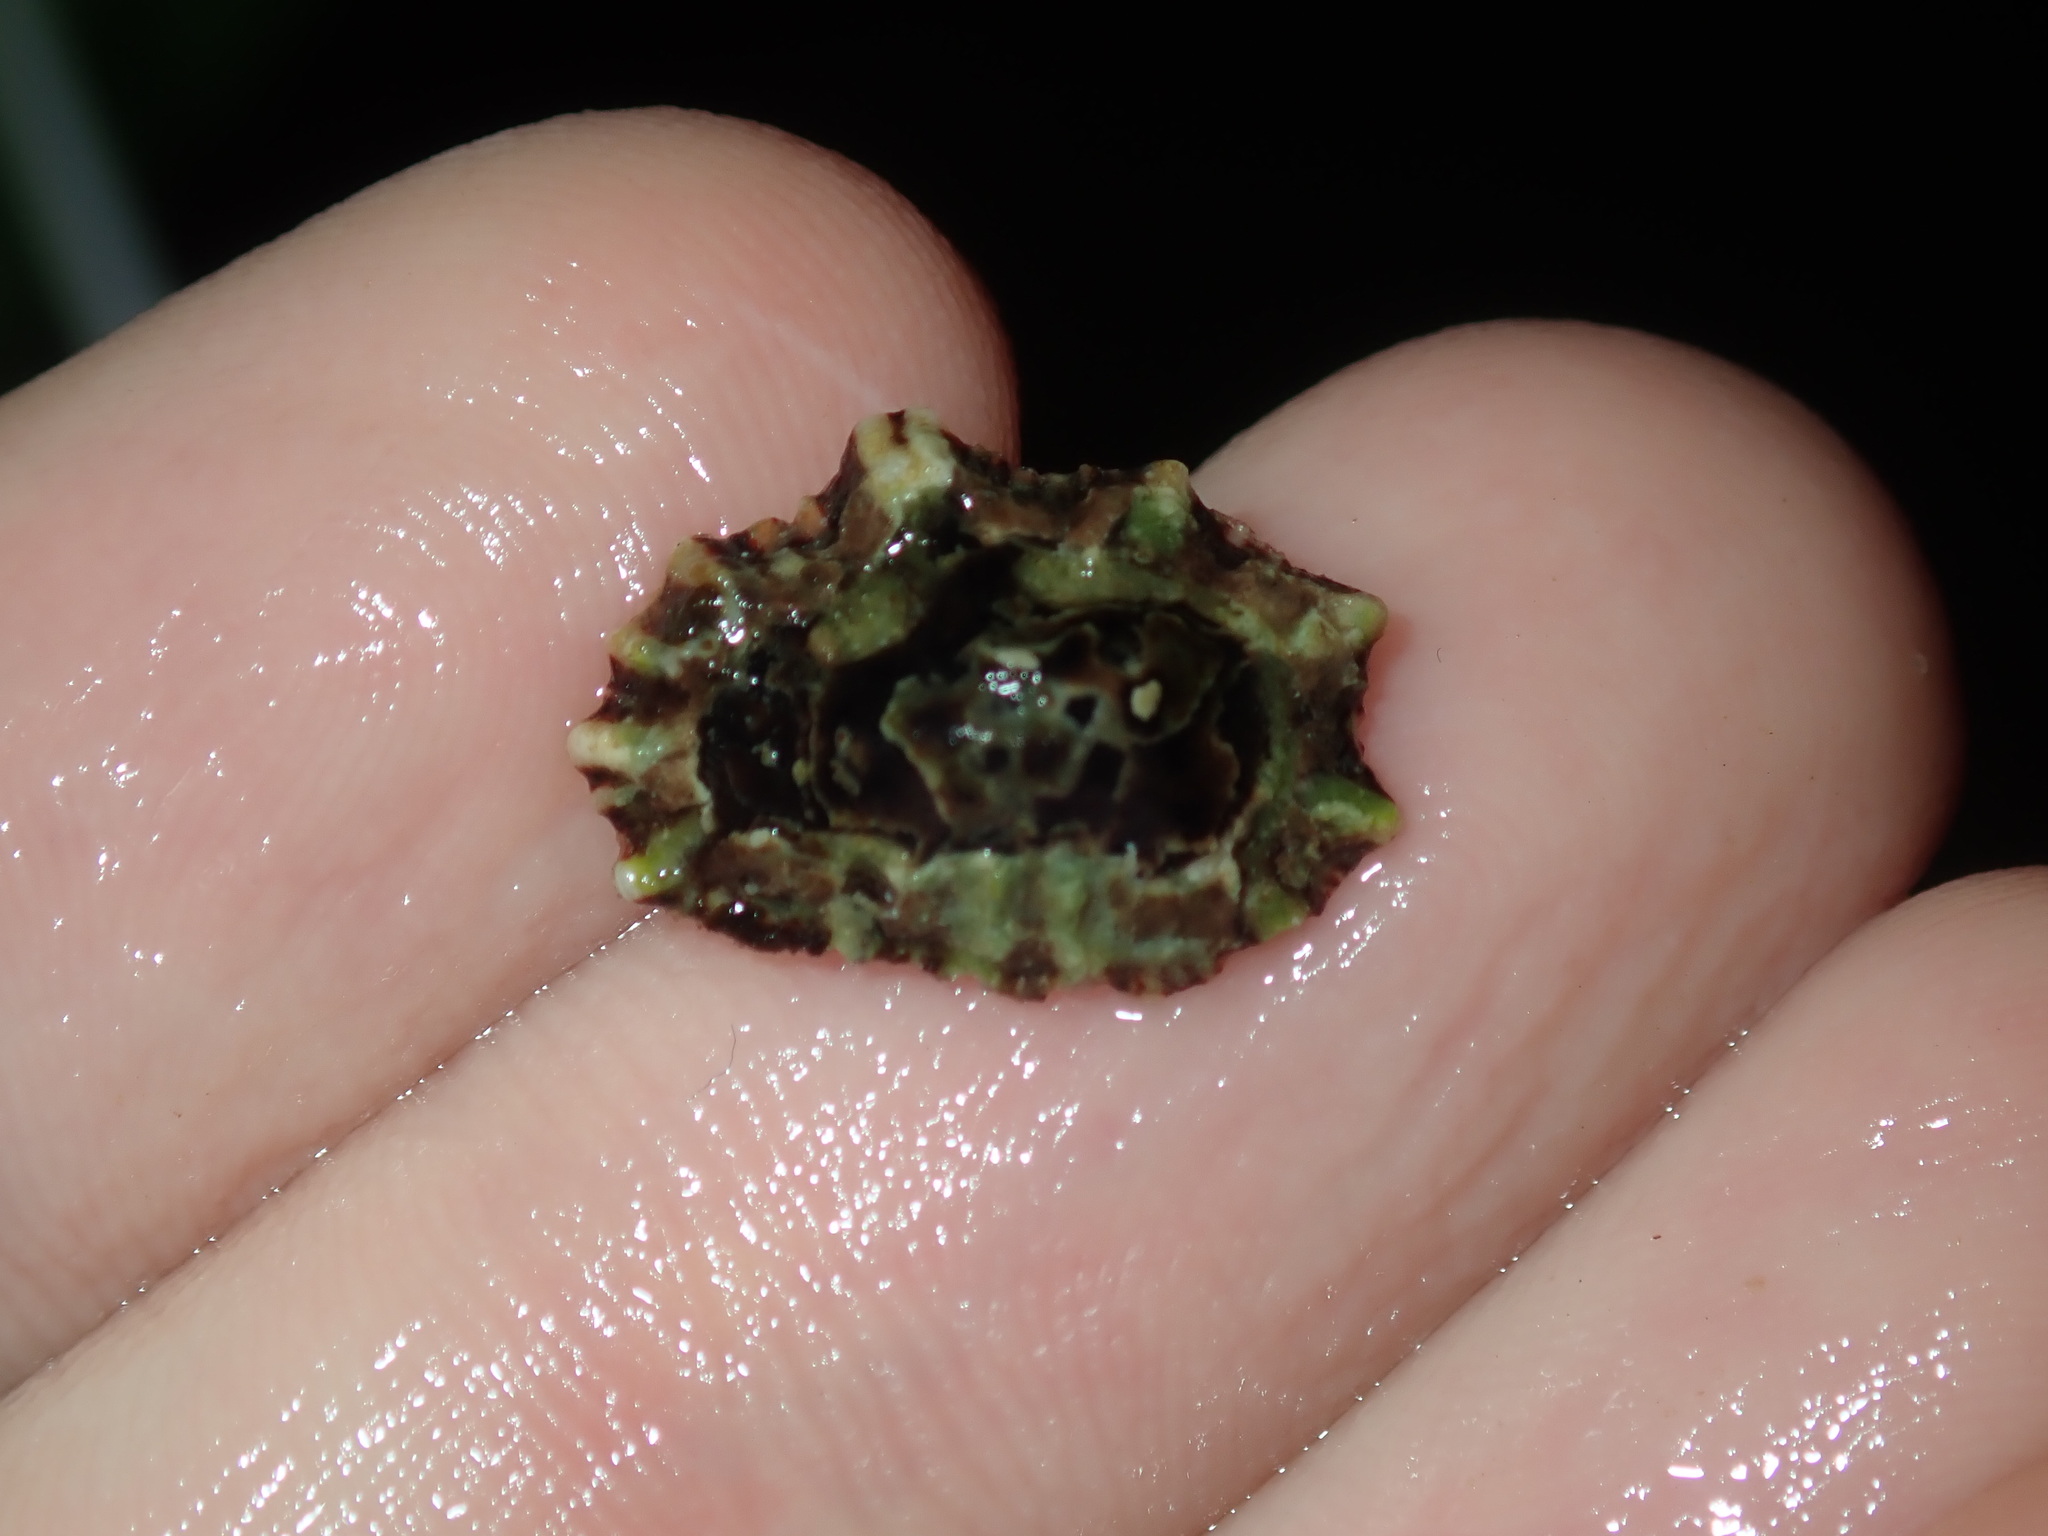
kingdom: Animalia
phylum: Mollusca
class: Gastropoda
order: Siphonariida
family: Siphonariidae
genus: Siphonaria
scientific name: Siphonaria denticulata
